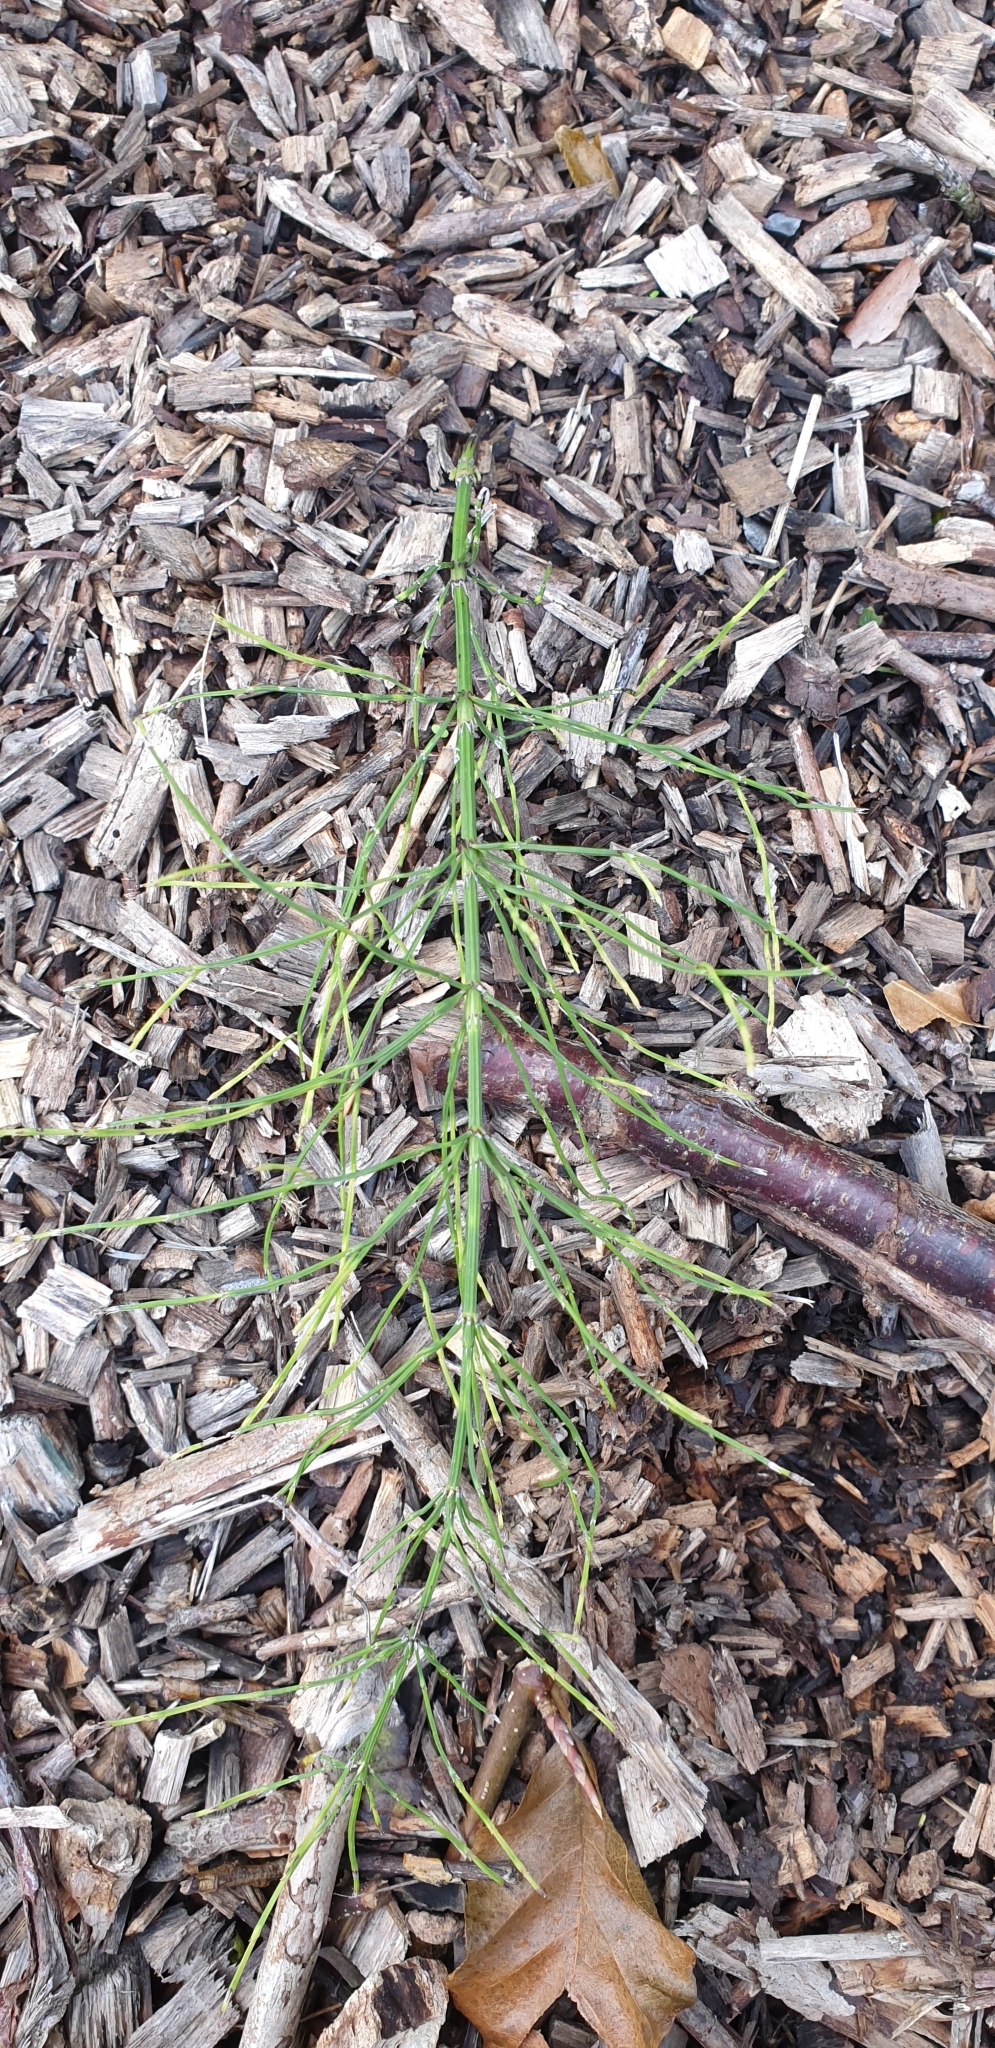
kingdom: Plantae
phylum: Tracheophyta
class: Polypodiopsida
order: Equisetales
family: Equisetaceae
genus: Equisetum
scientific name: Equisetum arvense
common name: Field horsetail
